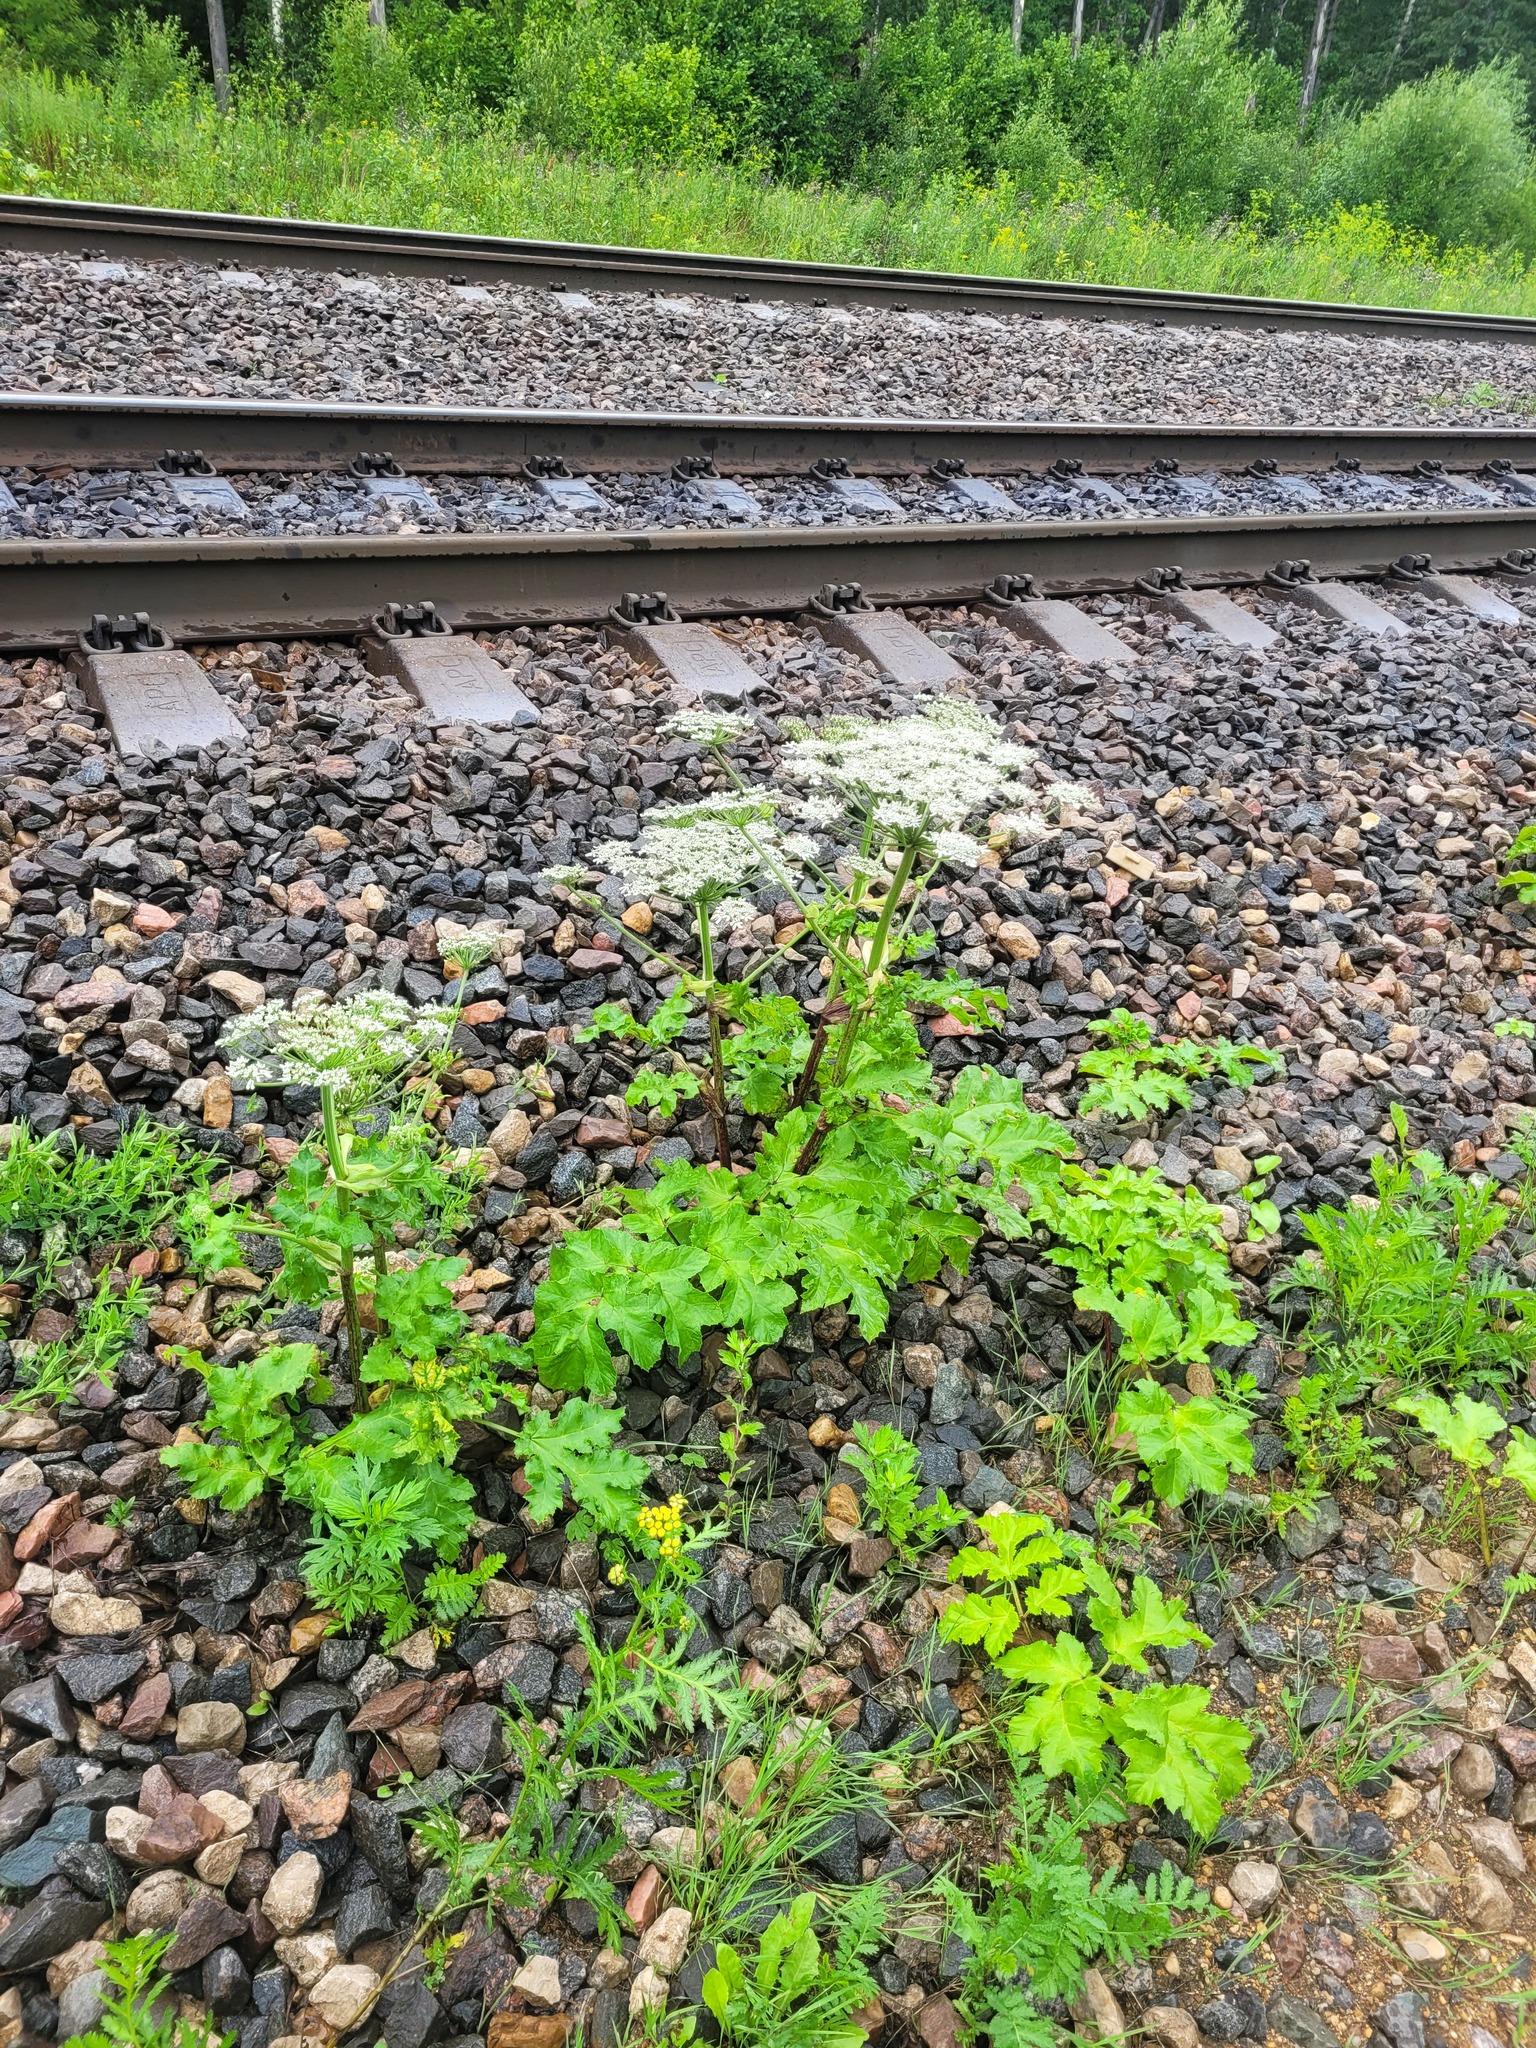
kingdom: Plantae
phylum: Tracheophyta
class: Magnoliopsida
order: Apiales
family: Apiaceae
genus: Heracleum
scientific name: Heracleum sosnowskyi
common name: Sosnowsky's hogweed
